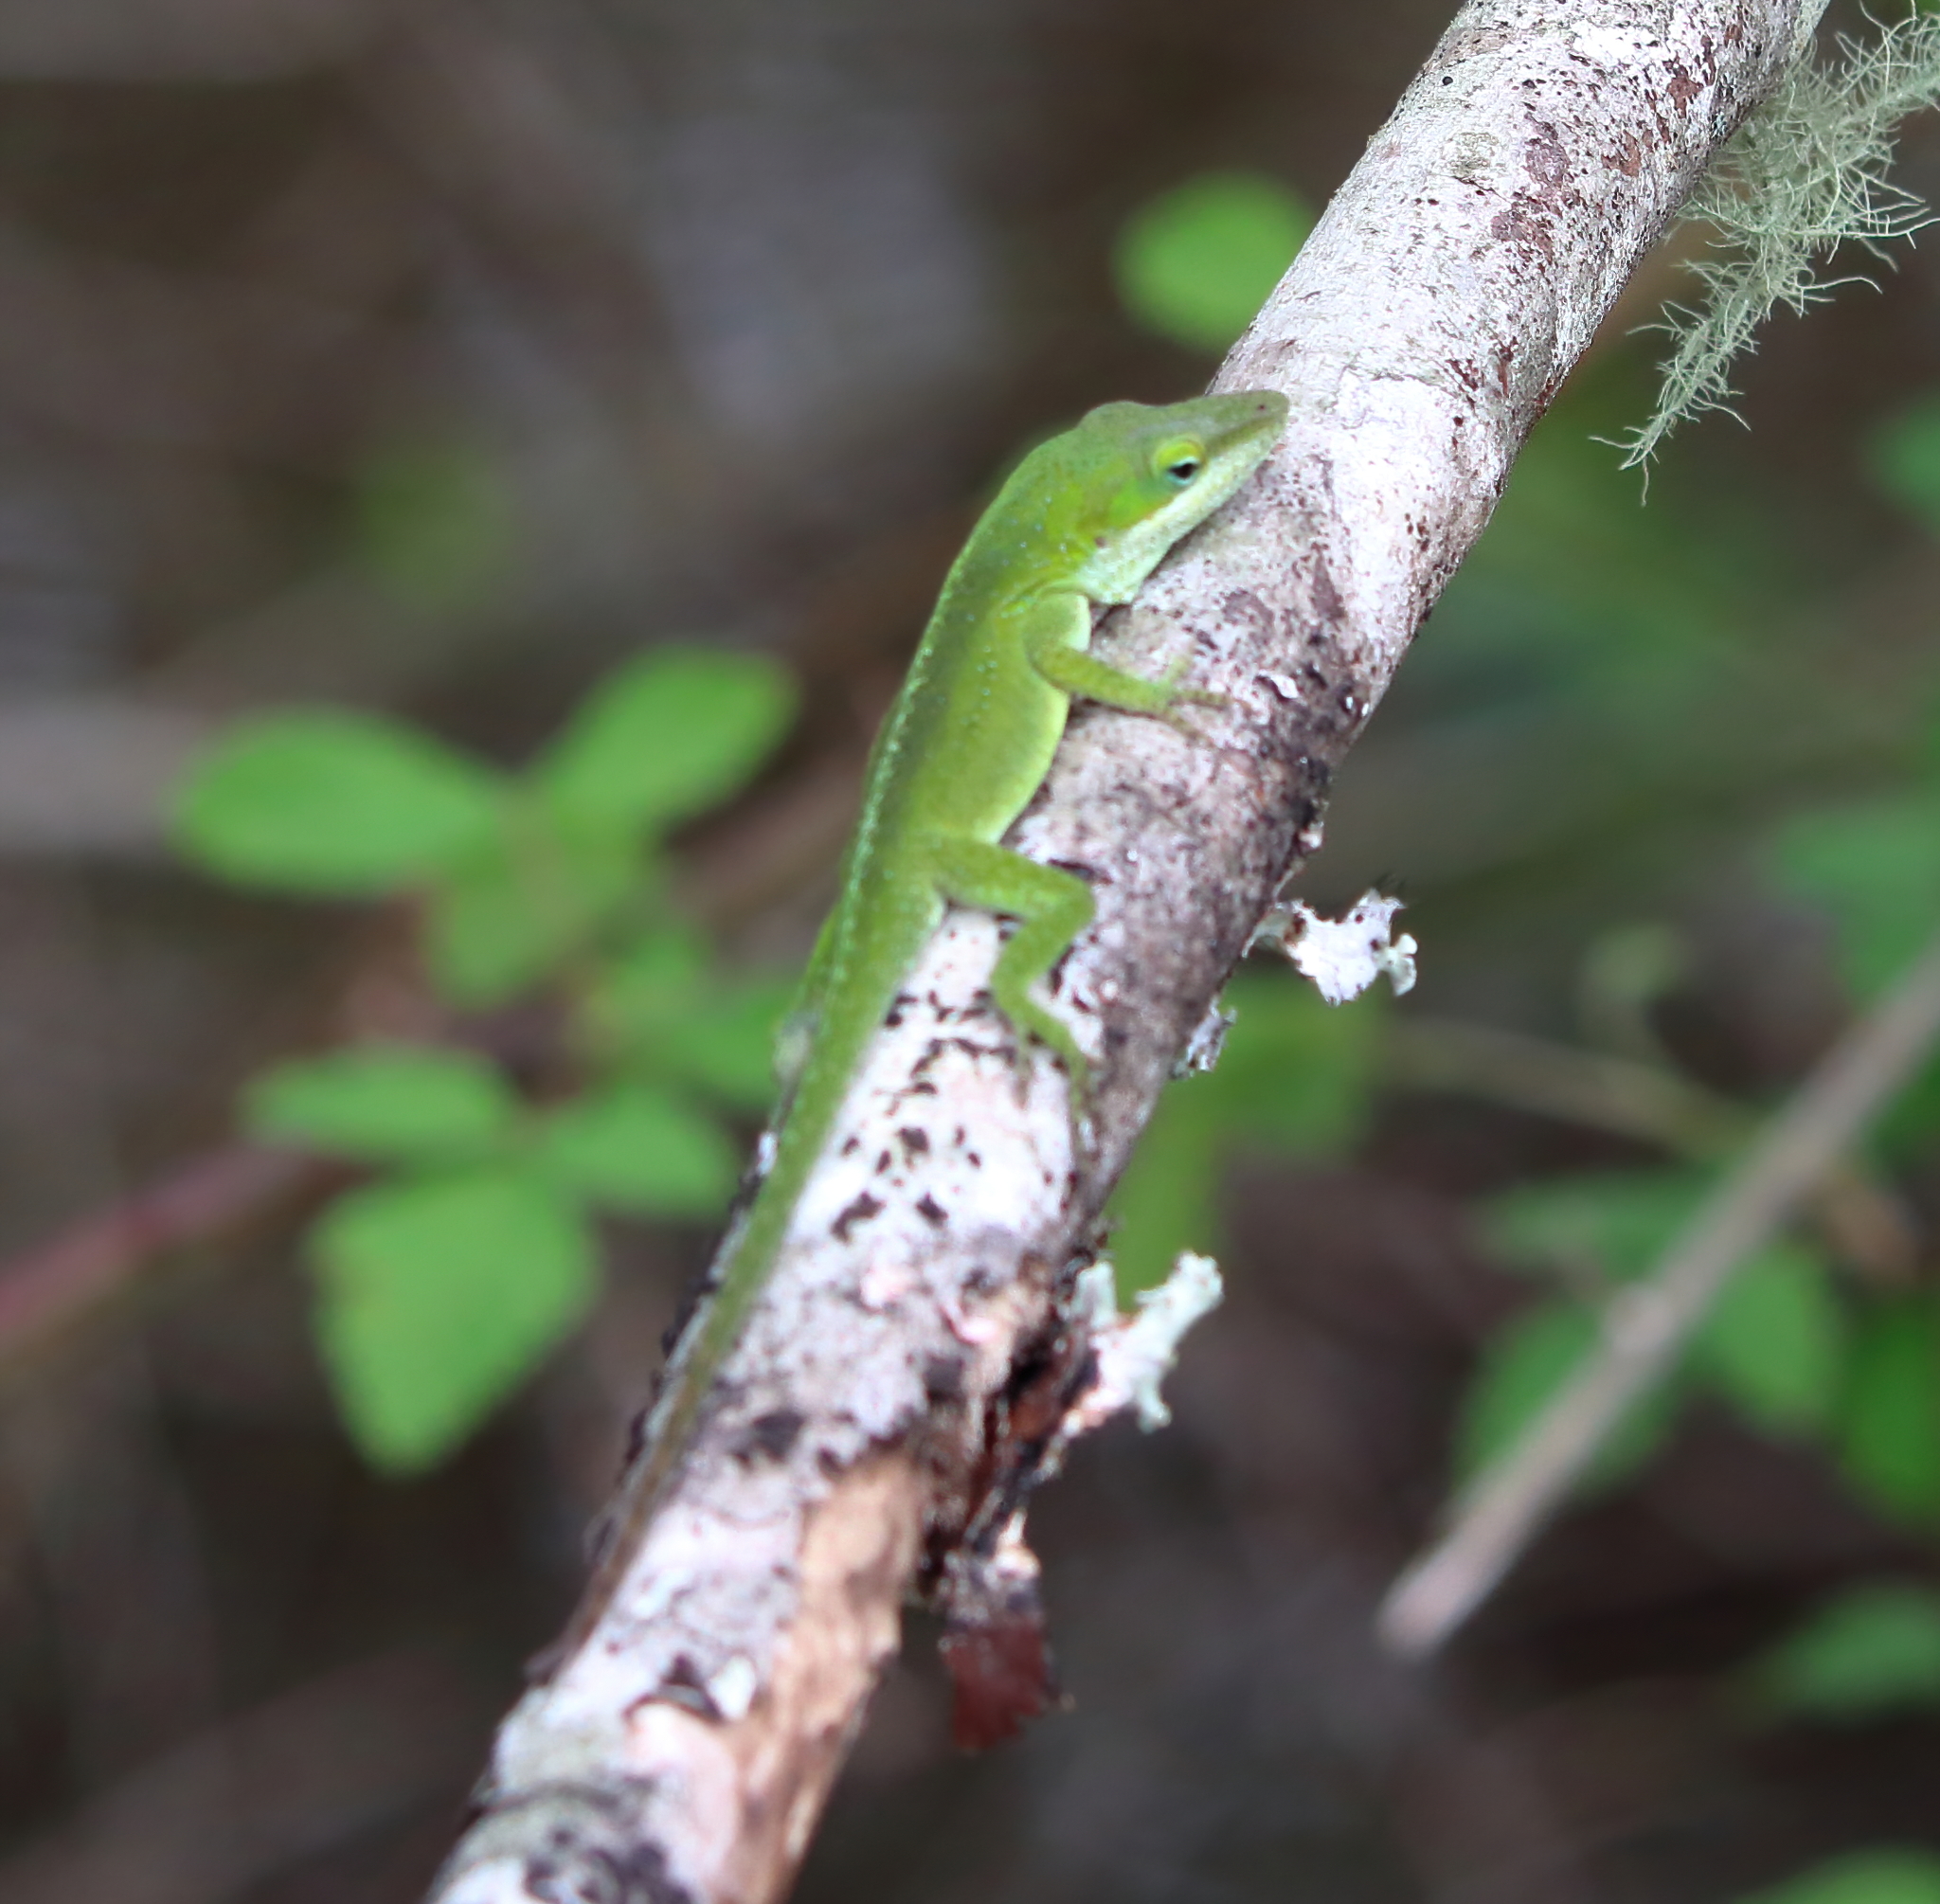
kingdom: Animalia
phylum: Chordata
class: Squamata
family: Dactyloidae
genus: Anolis
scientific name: Anolis carolinensis
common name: Green anole
